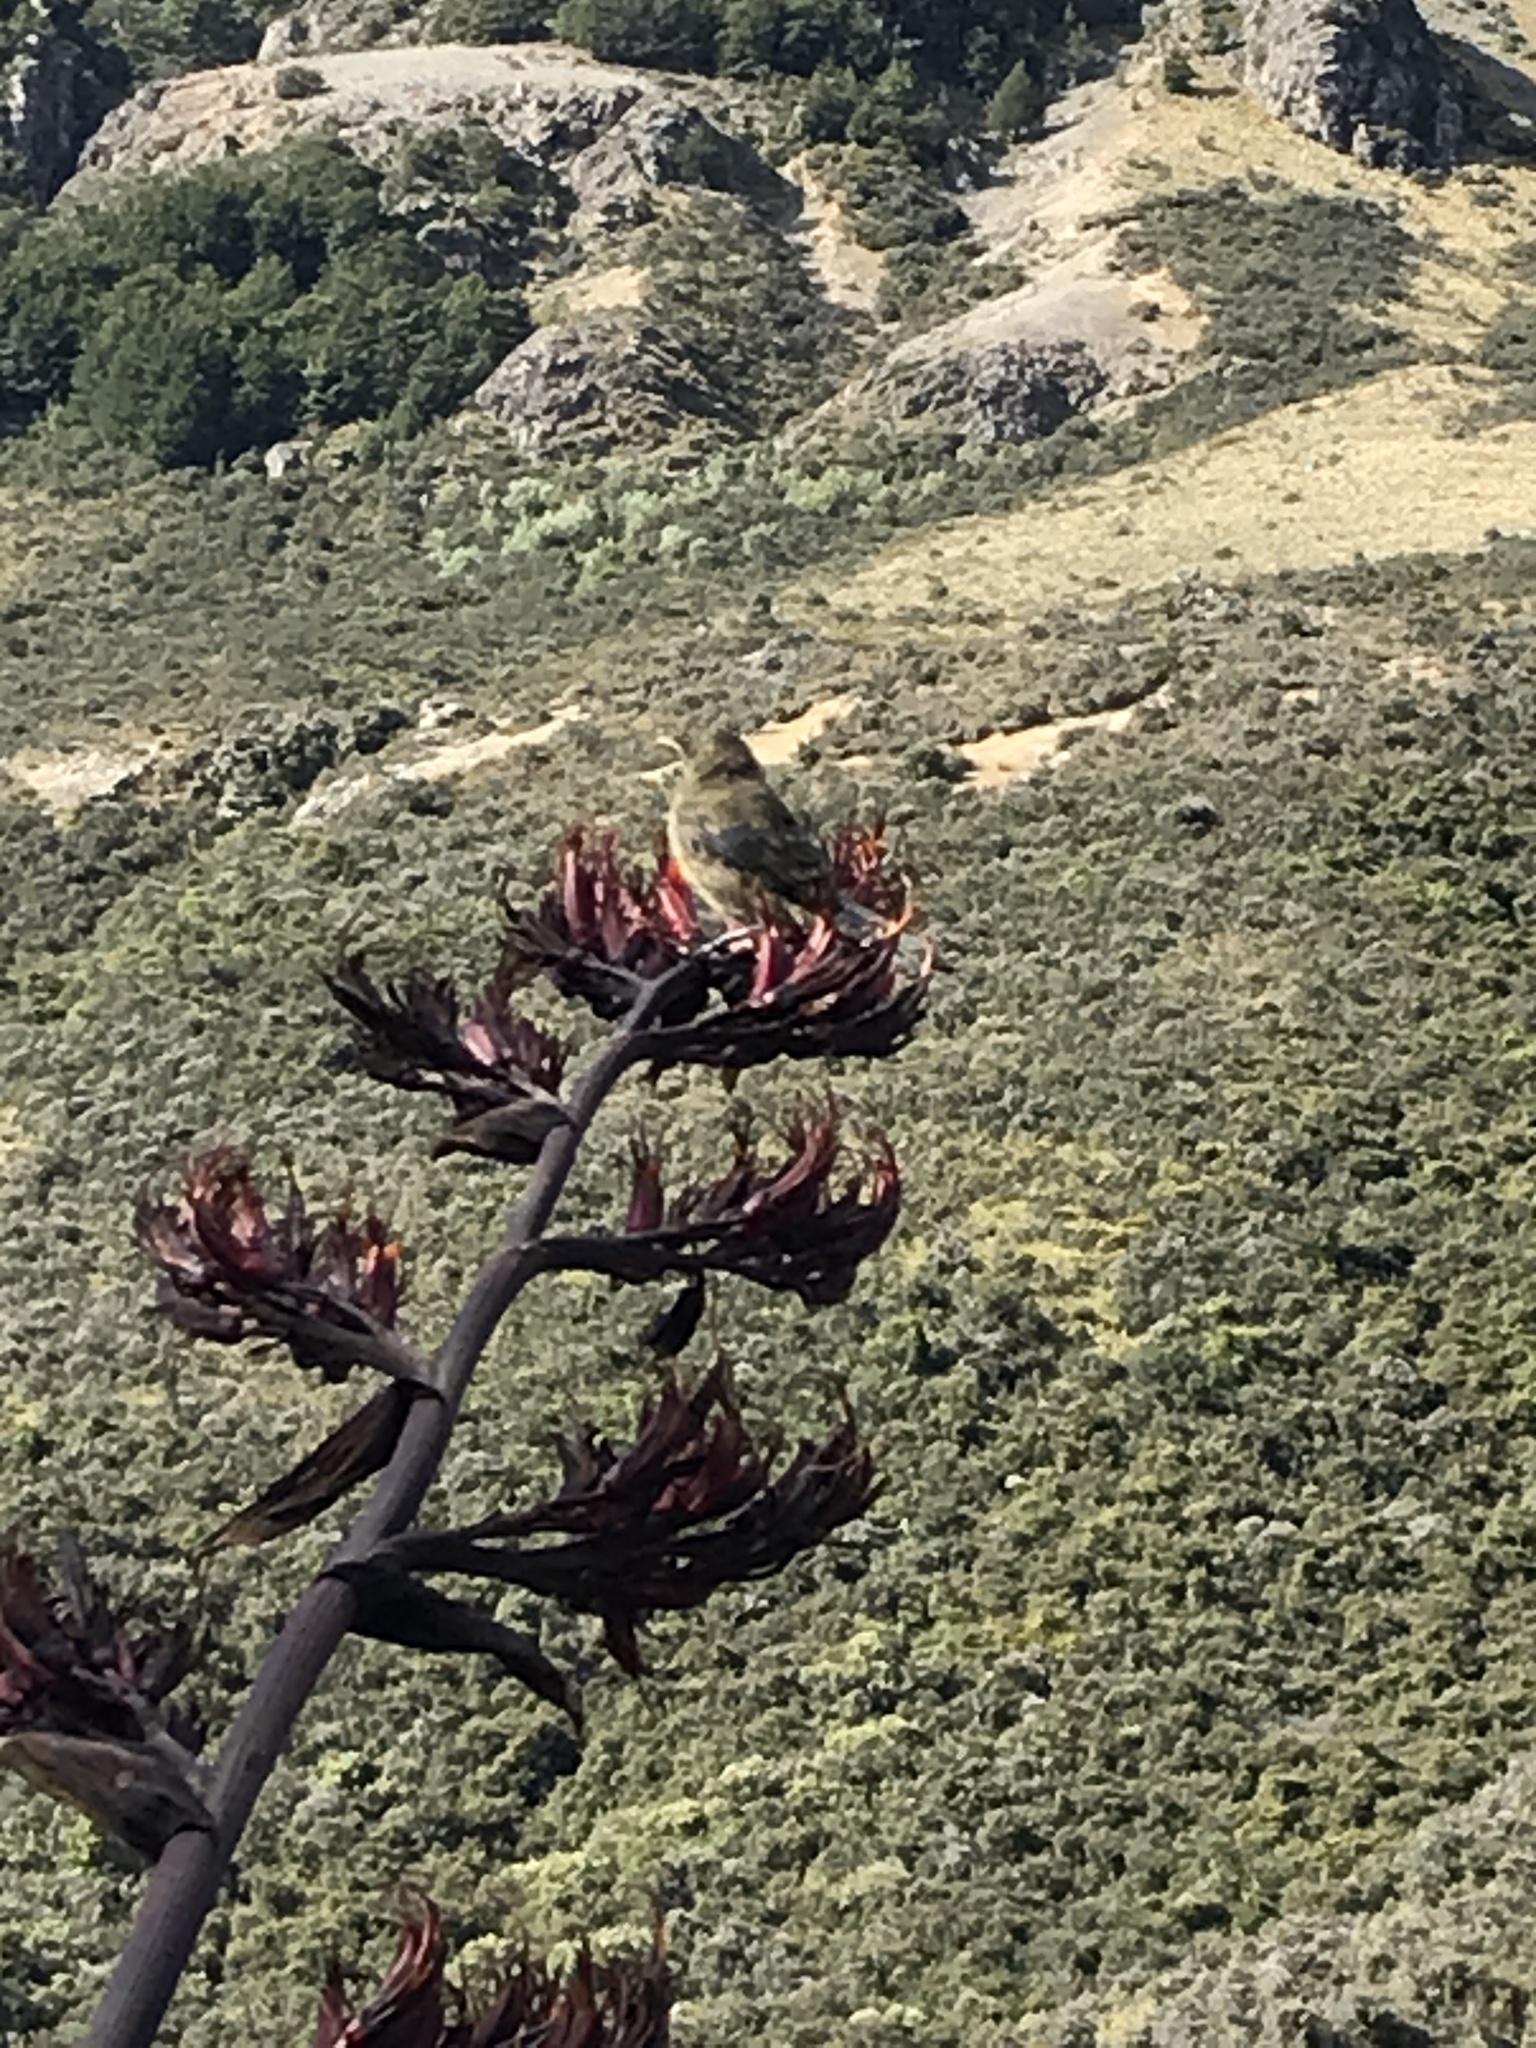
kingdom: Animalia
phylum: Chordata
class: Aves
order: Passeriformes
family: Meliphagidae
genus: Anthornis
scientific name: Anthornis melanura
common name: New zealand bellbird
